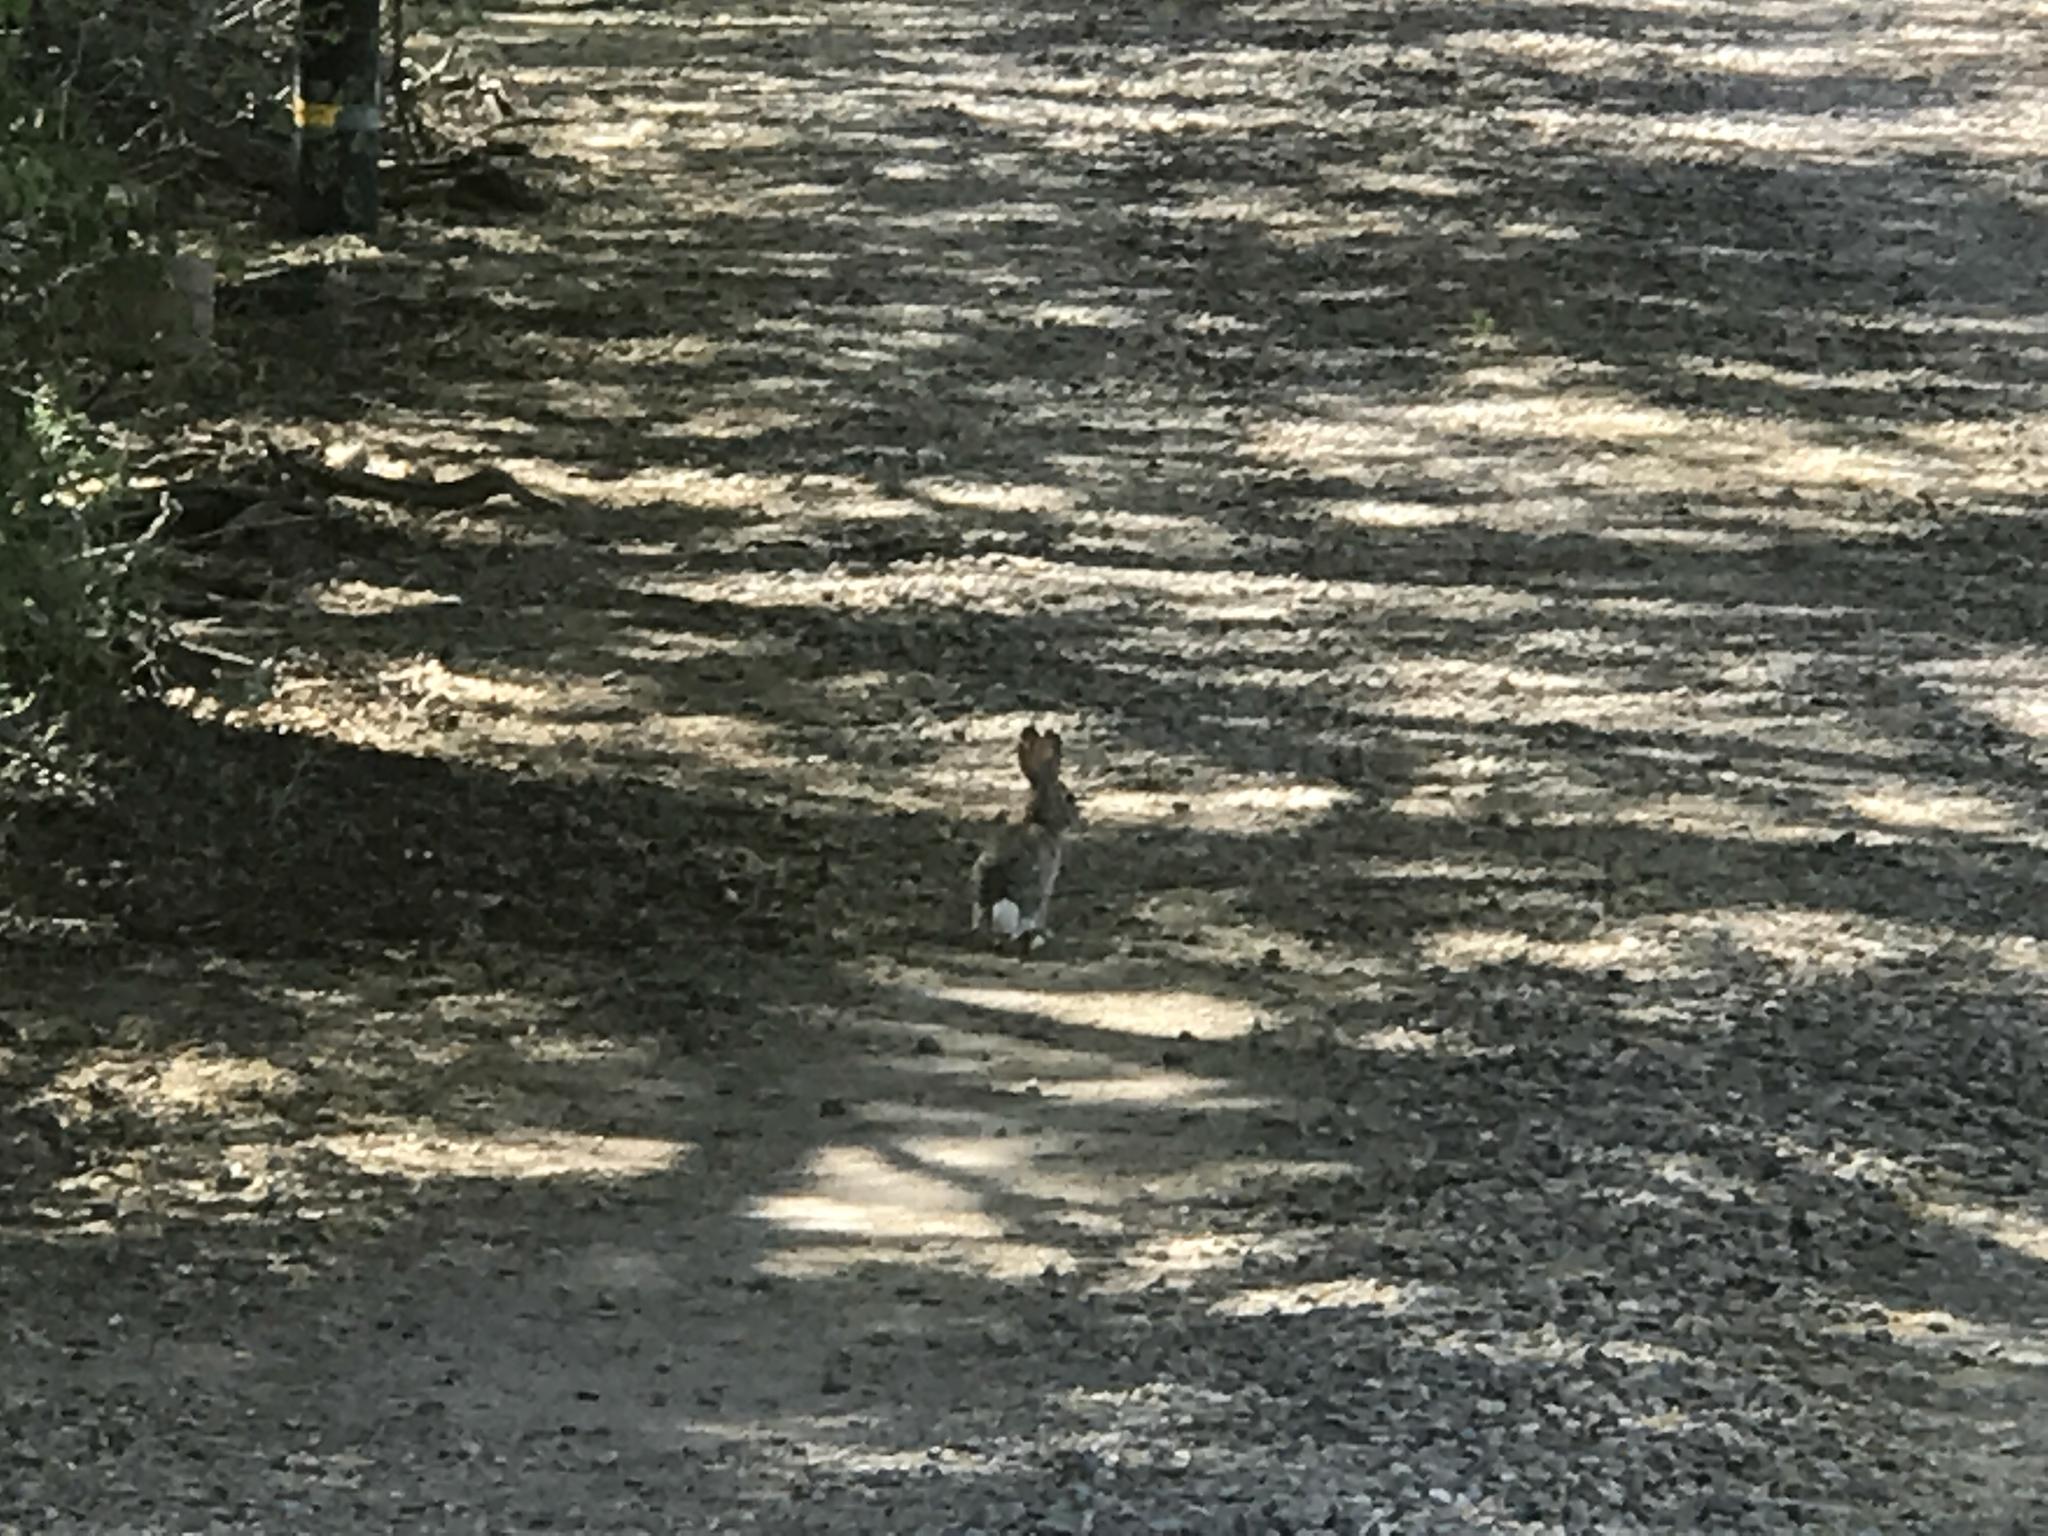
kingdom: Animalia
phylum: Chordata
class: Mammalia
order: Lagomorpha
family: Leporidae
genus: Sylvilagus
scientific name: Sylvilagus audubonii
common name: Desert cottontail
